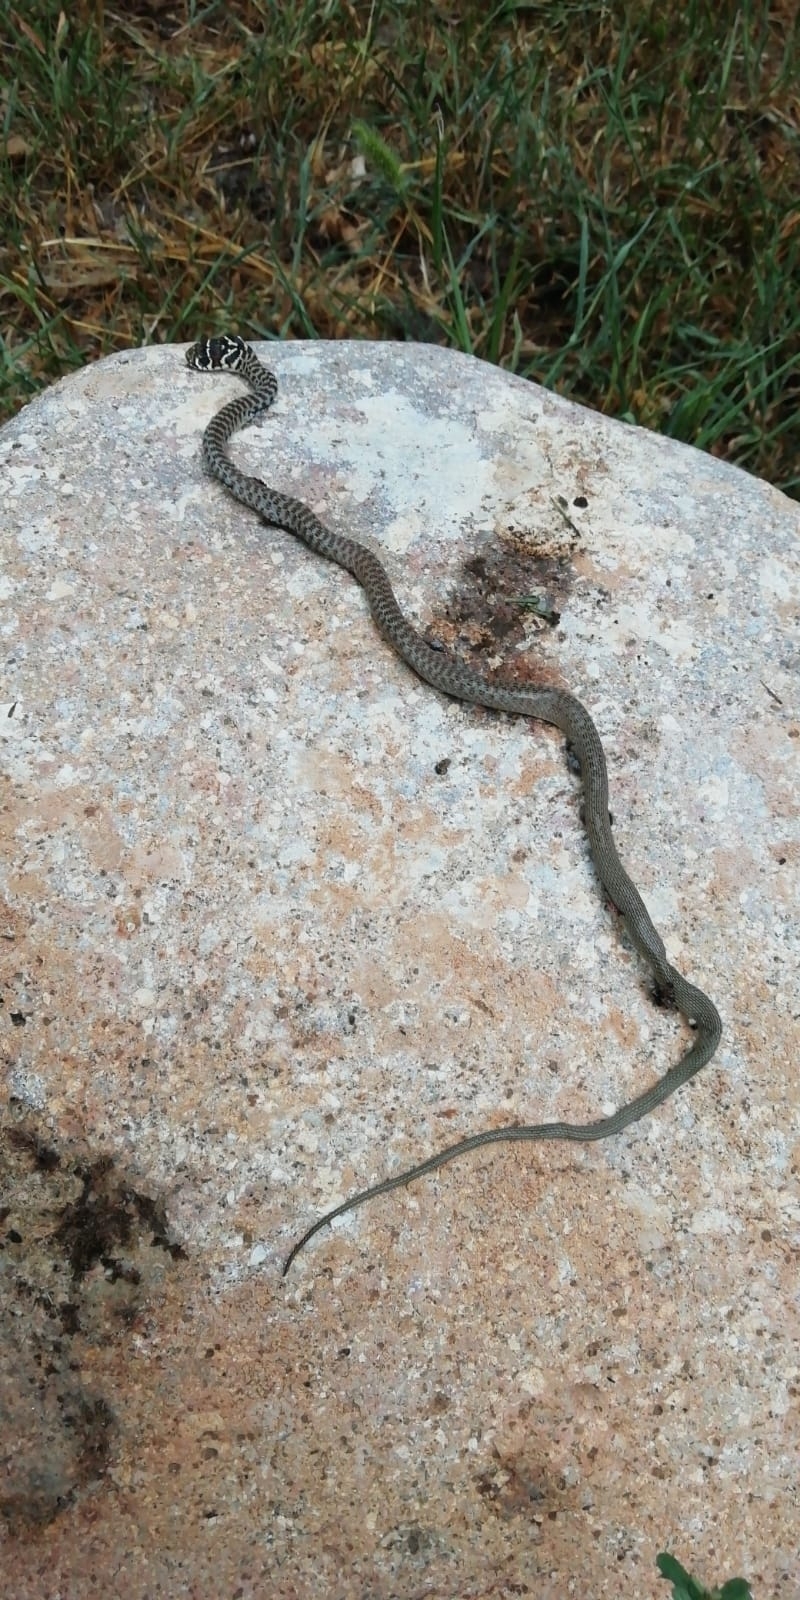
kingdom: Animalia
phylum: Chordata
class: Squamata
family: Colubridae
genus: Hierophis
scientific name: Hierophis viridiflavus
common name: Green whip snake
